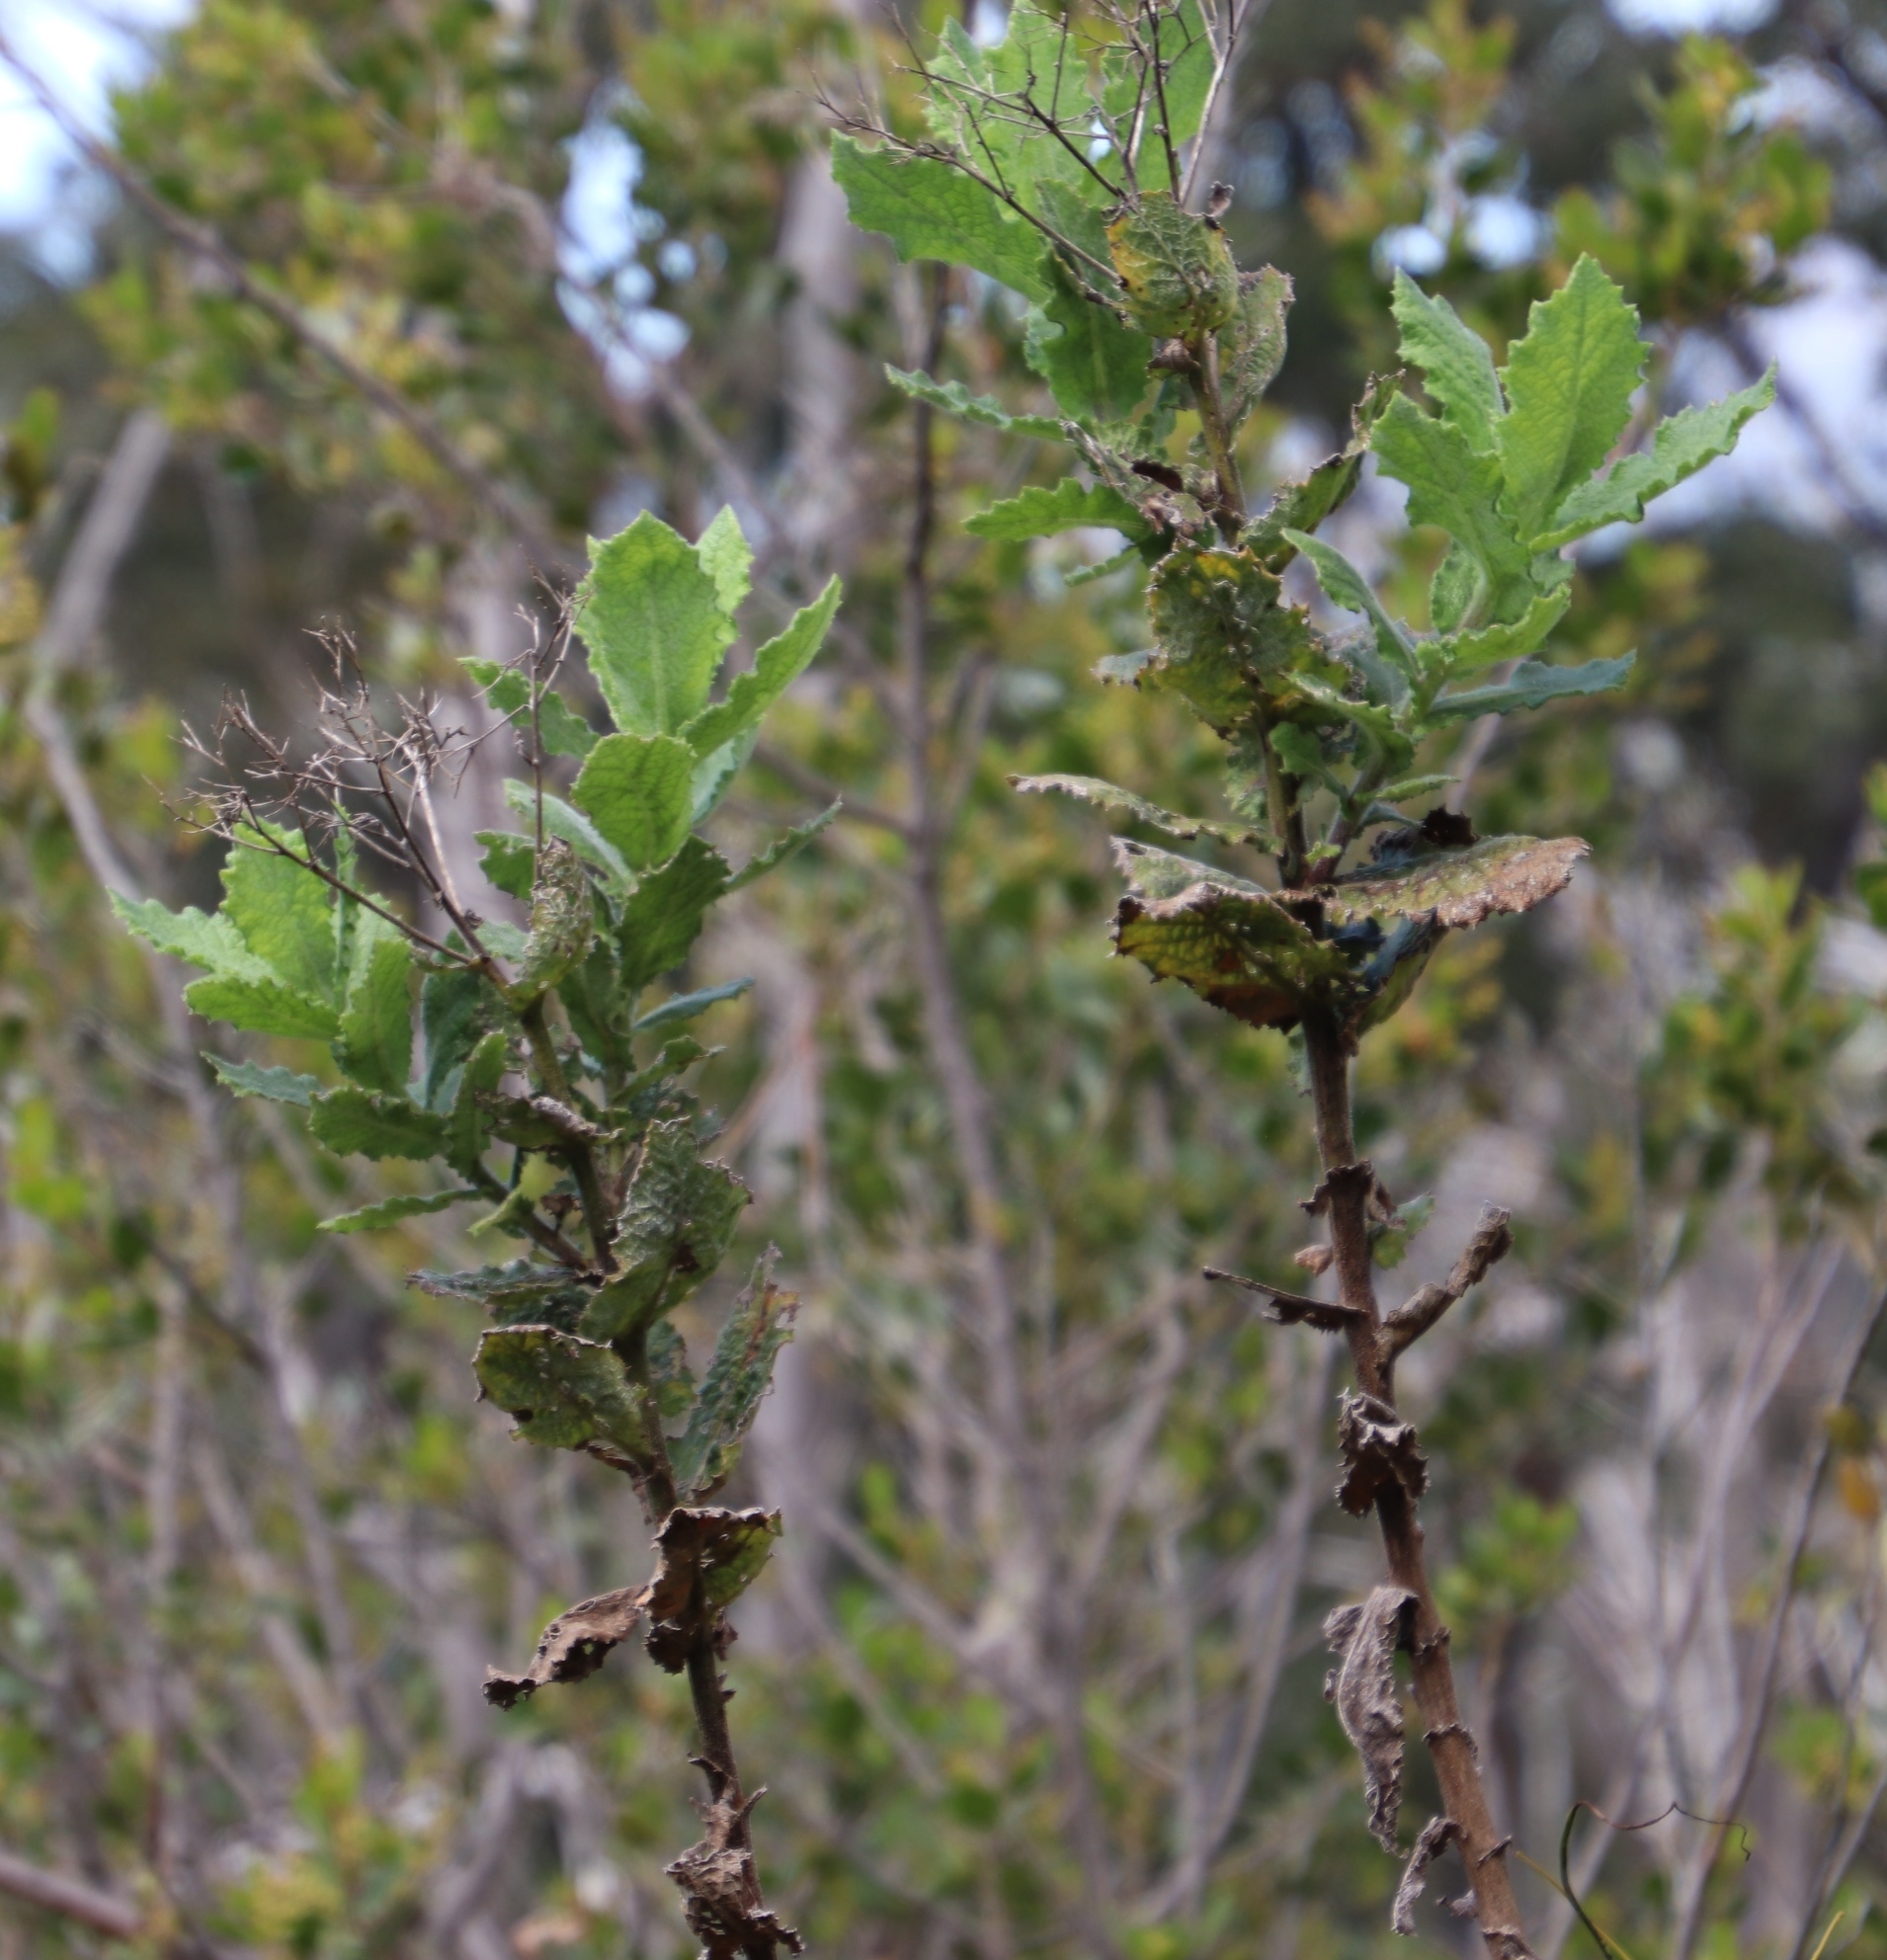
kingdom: Plantae
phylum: Tracheophyta
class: Magnoliopsida
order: Asterales
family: Asteraceae
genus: Senecio
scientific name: Senecio rigidus
